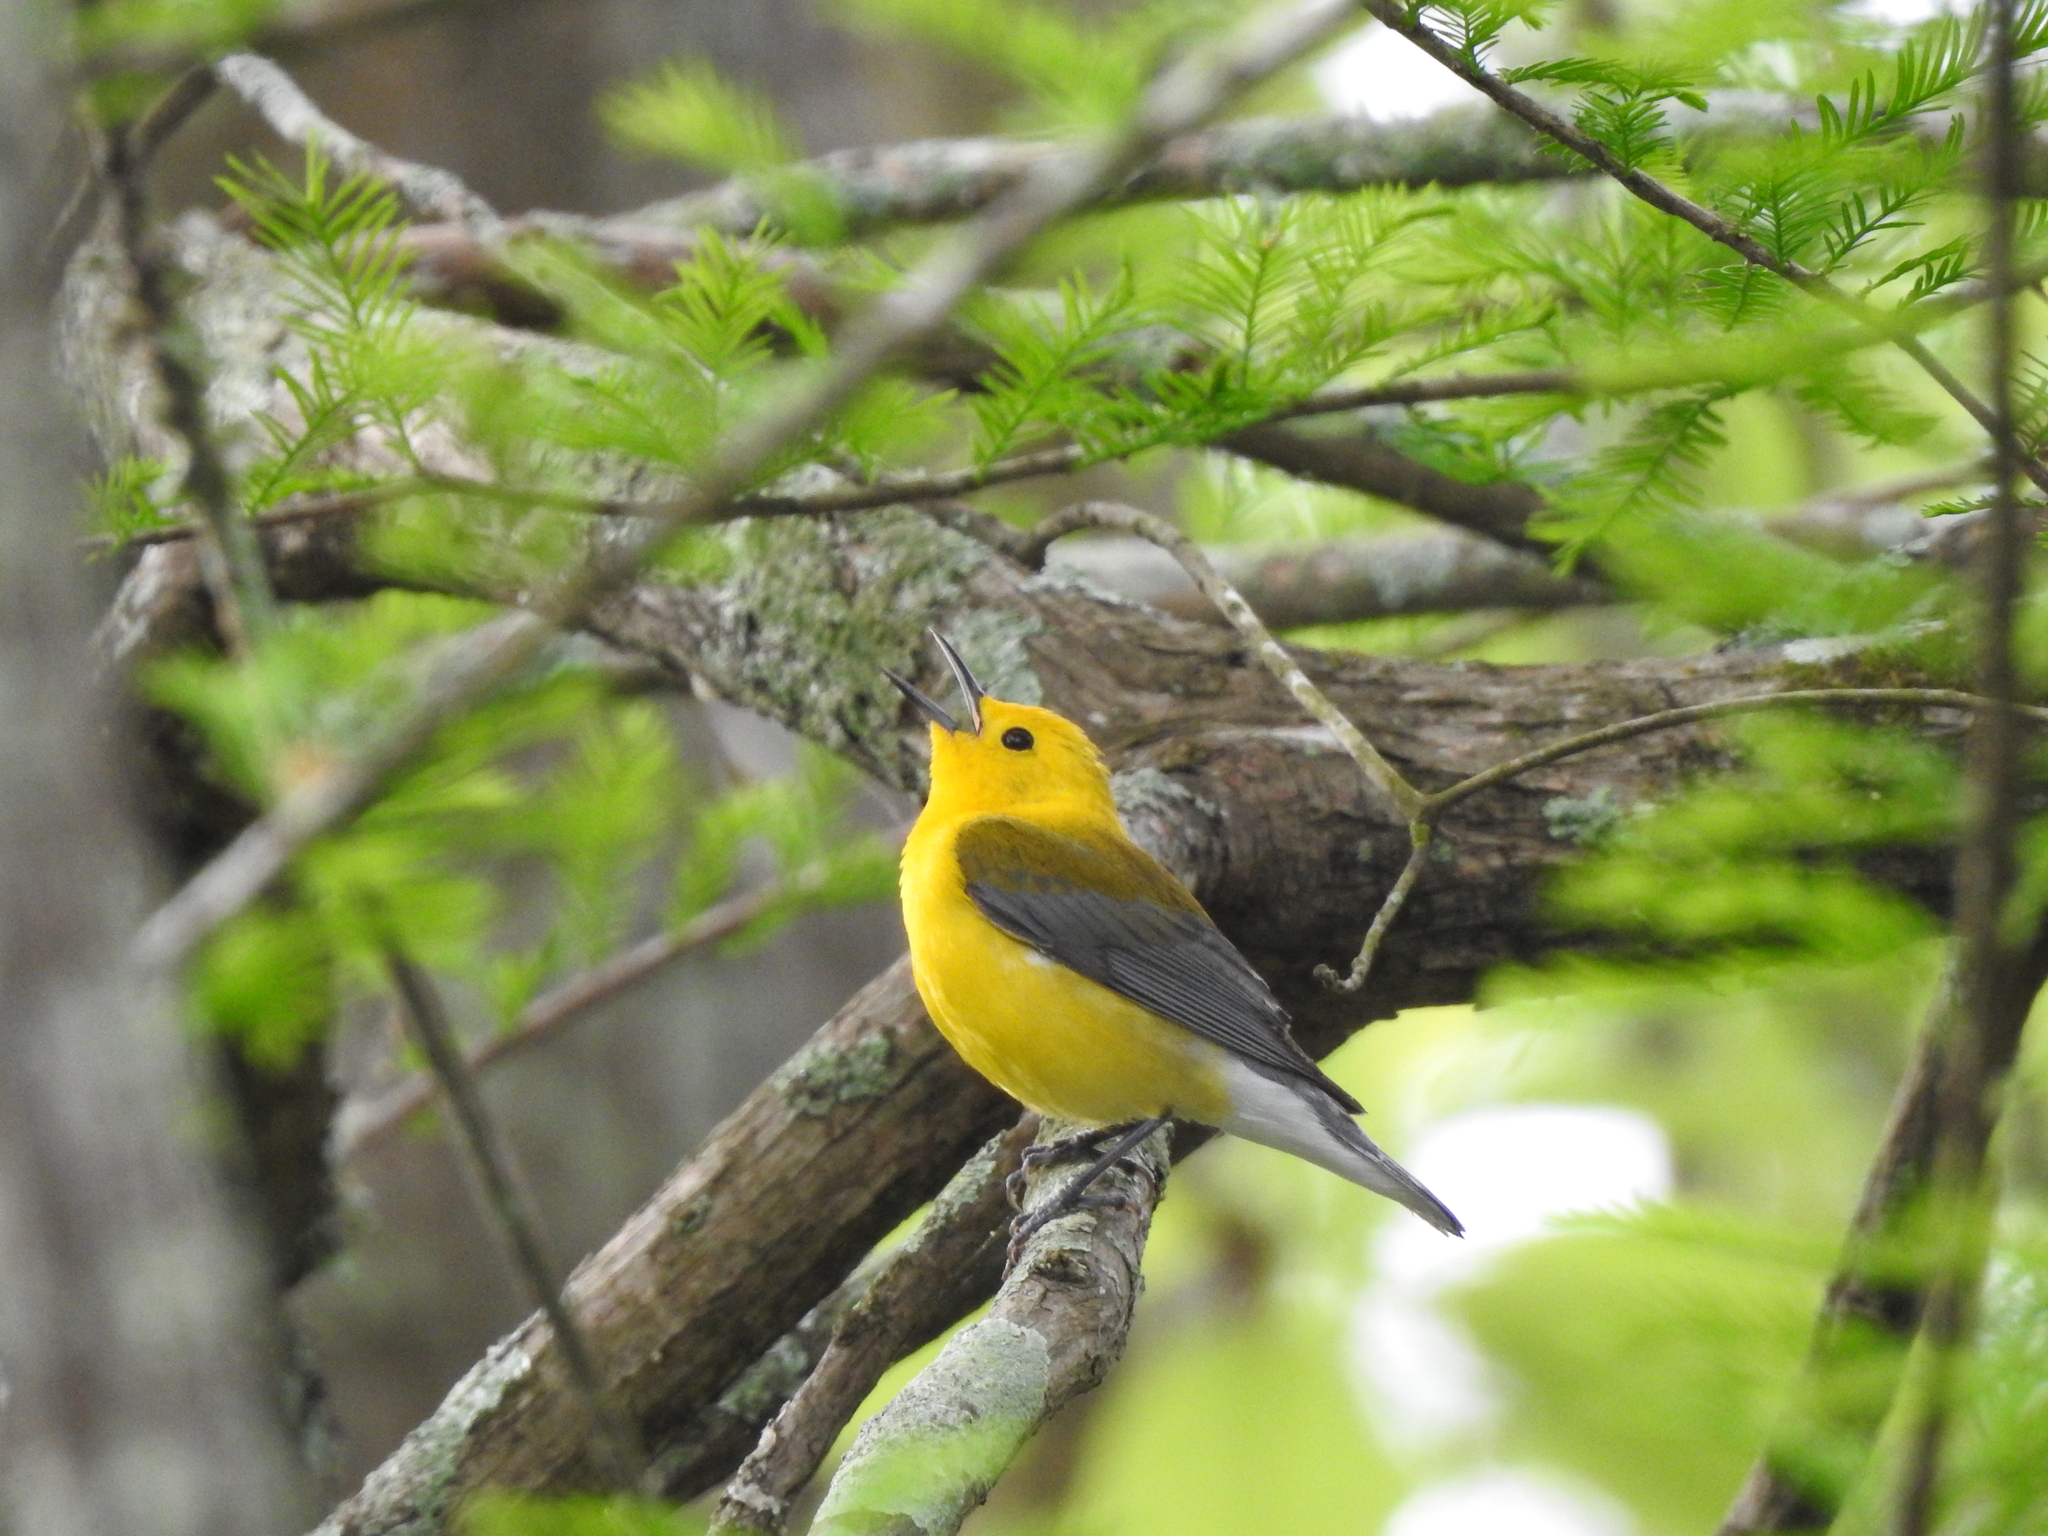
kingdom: Animalia
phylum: Chordata
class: Aves
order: Passeriformes
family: Parulidae
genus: Protonotaria
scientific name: Protonotaria citrea
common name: Prothonotary warbler
